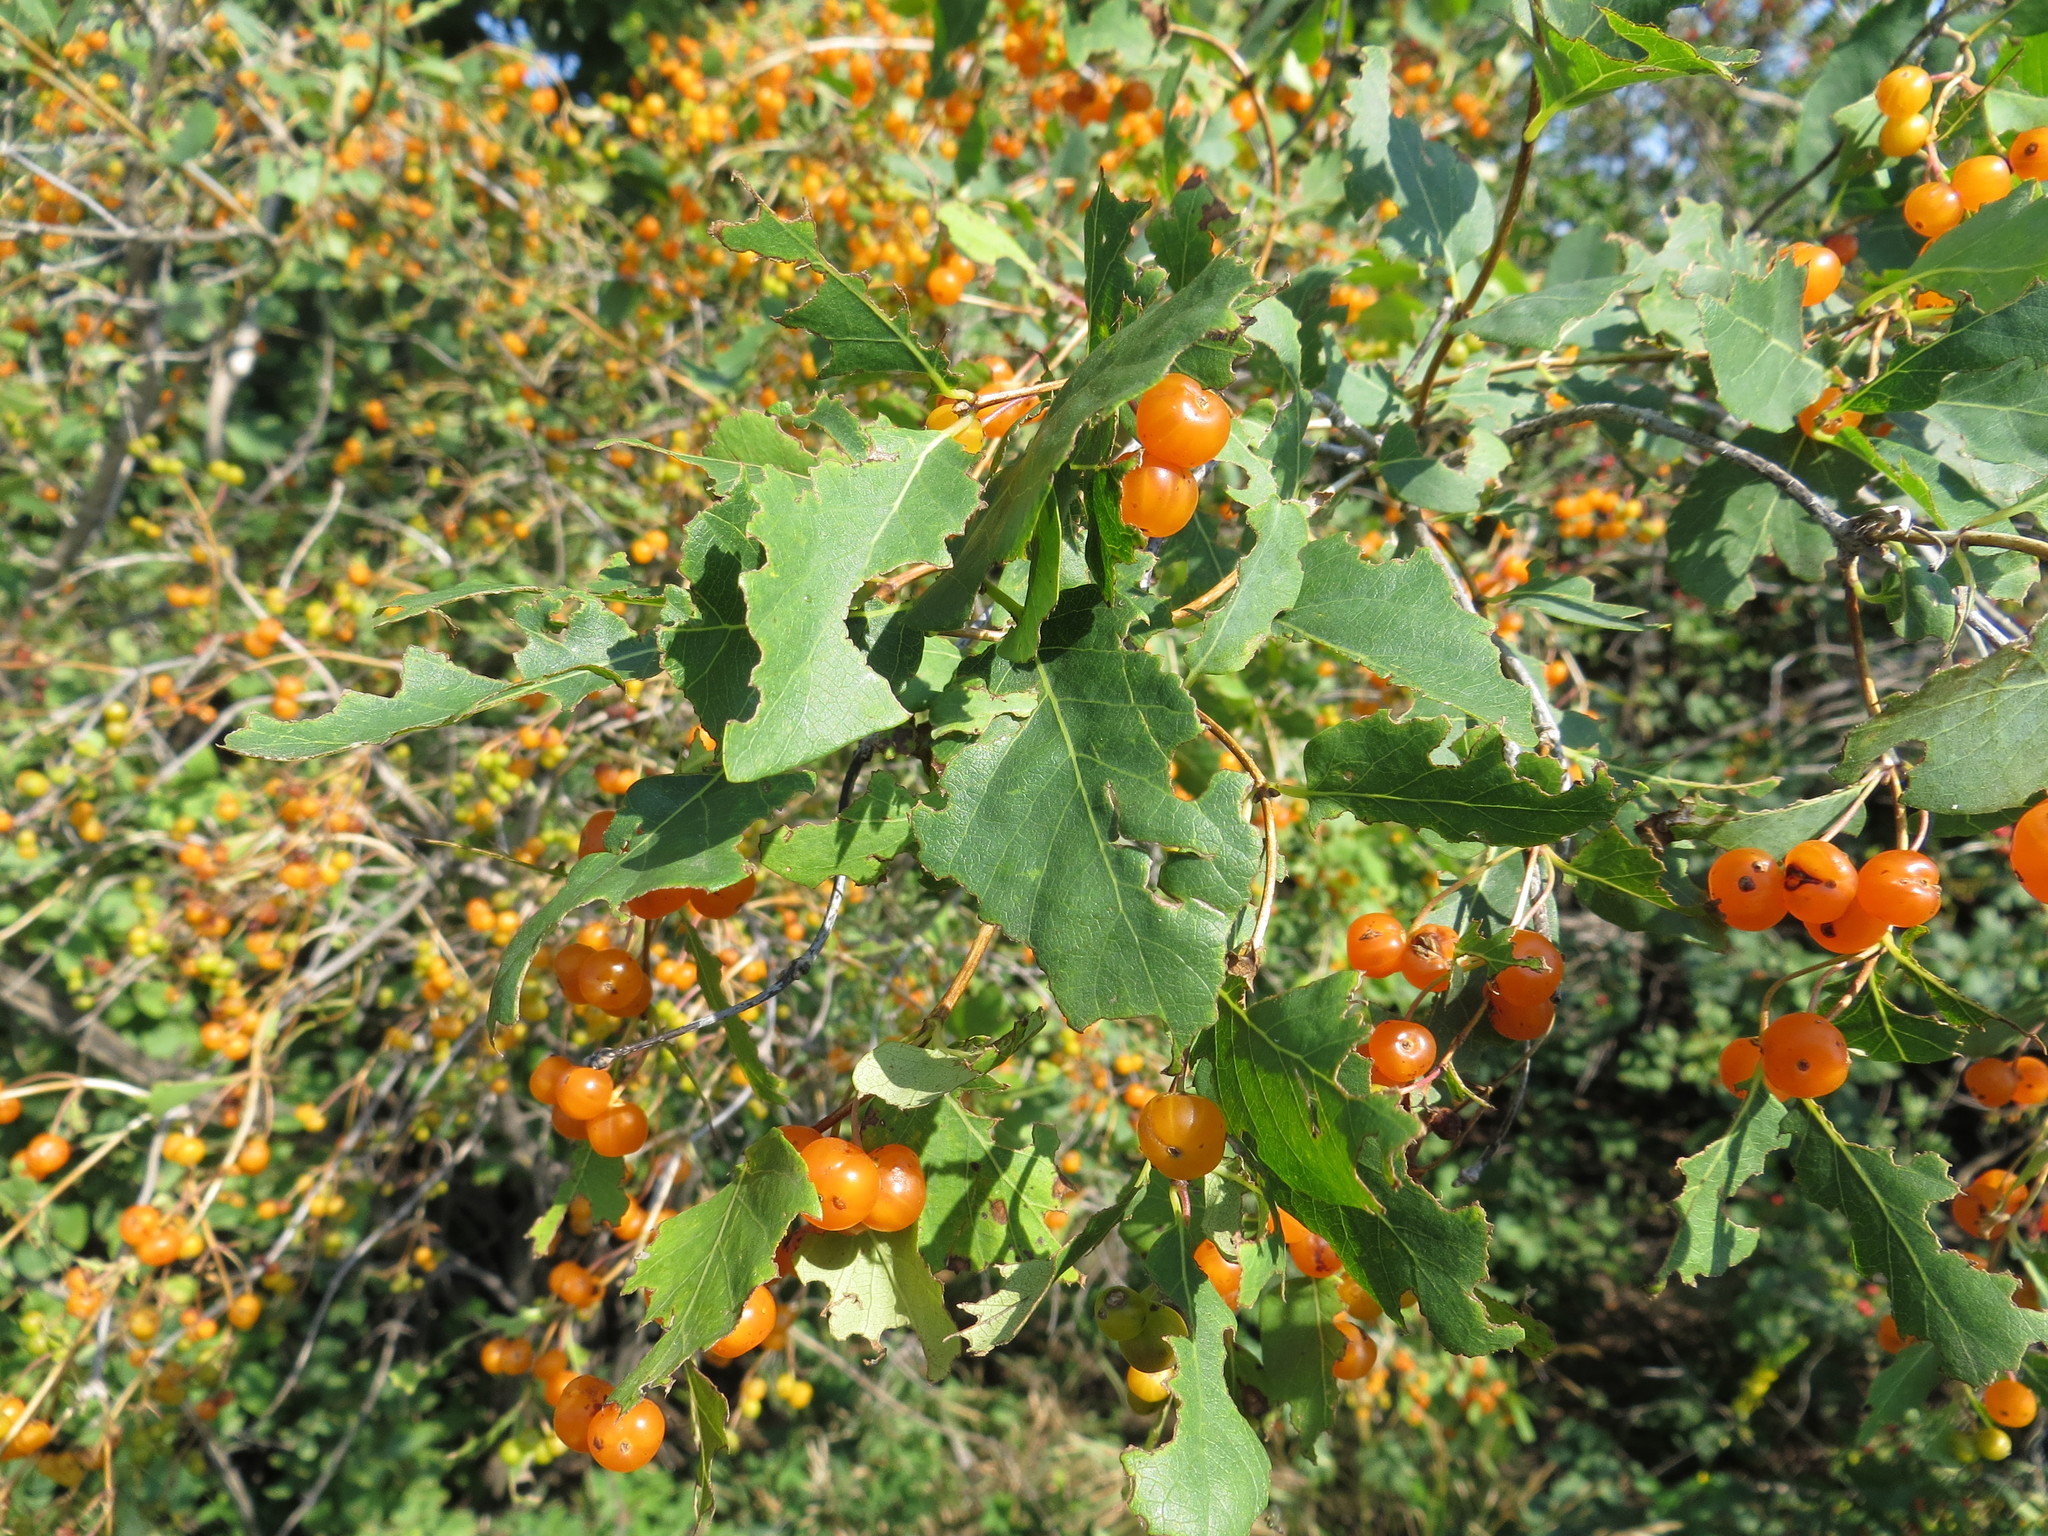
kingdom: Plantae
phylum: Tracheophyta
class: Magnoliopsida
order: Dipsacales
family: Caprifoliaceae
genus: Lonicera
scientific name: Lonicera tatarica
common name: Tatarian honeysuckle
